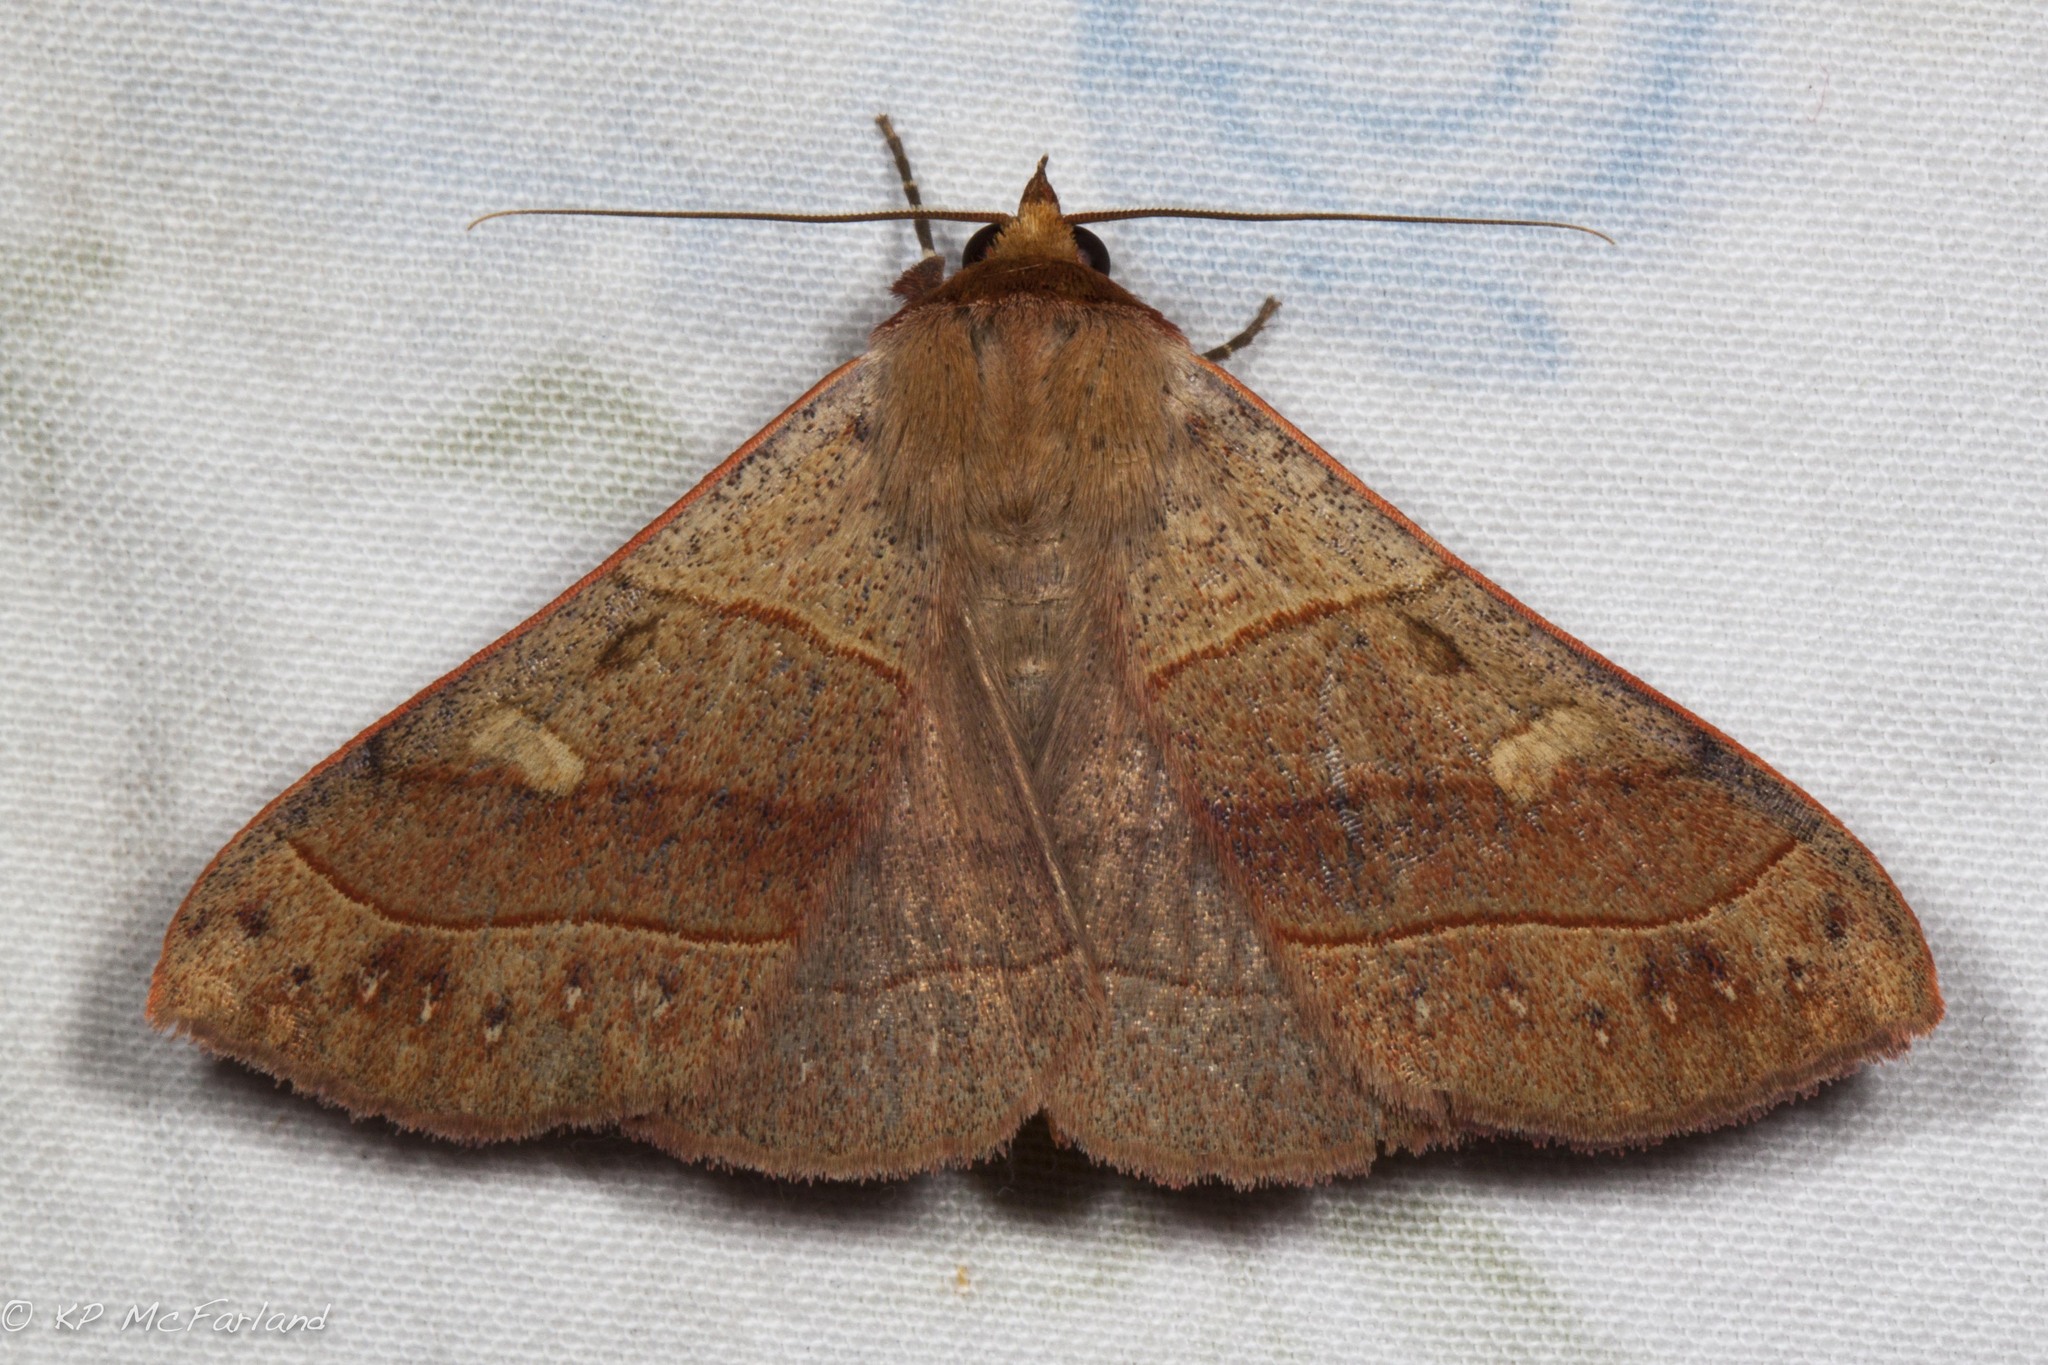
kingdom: Animalia
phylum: Arthropoda
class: Insecta
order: Lepidoptera
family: Erebidae
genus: Panopoda
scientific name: Panopoda rufimargo
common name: Red-lined panopoda moth
